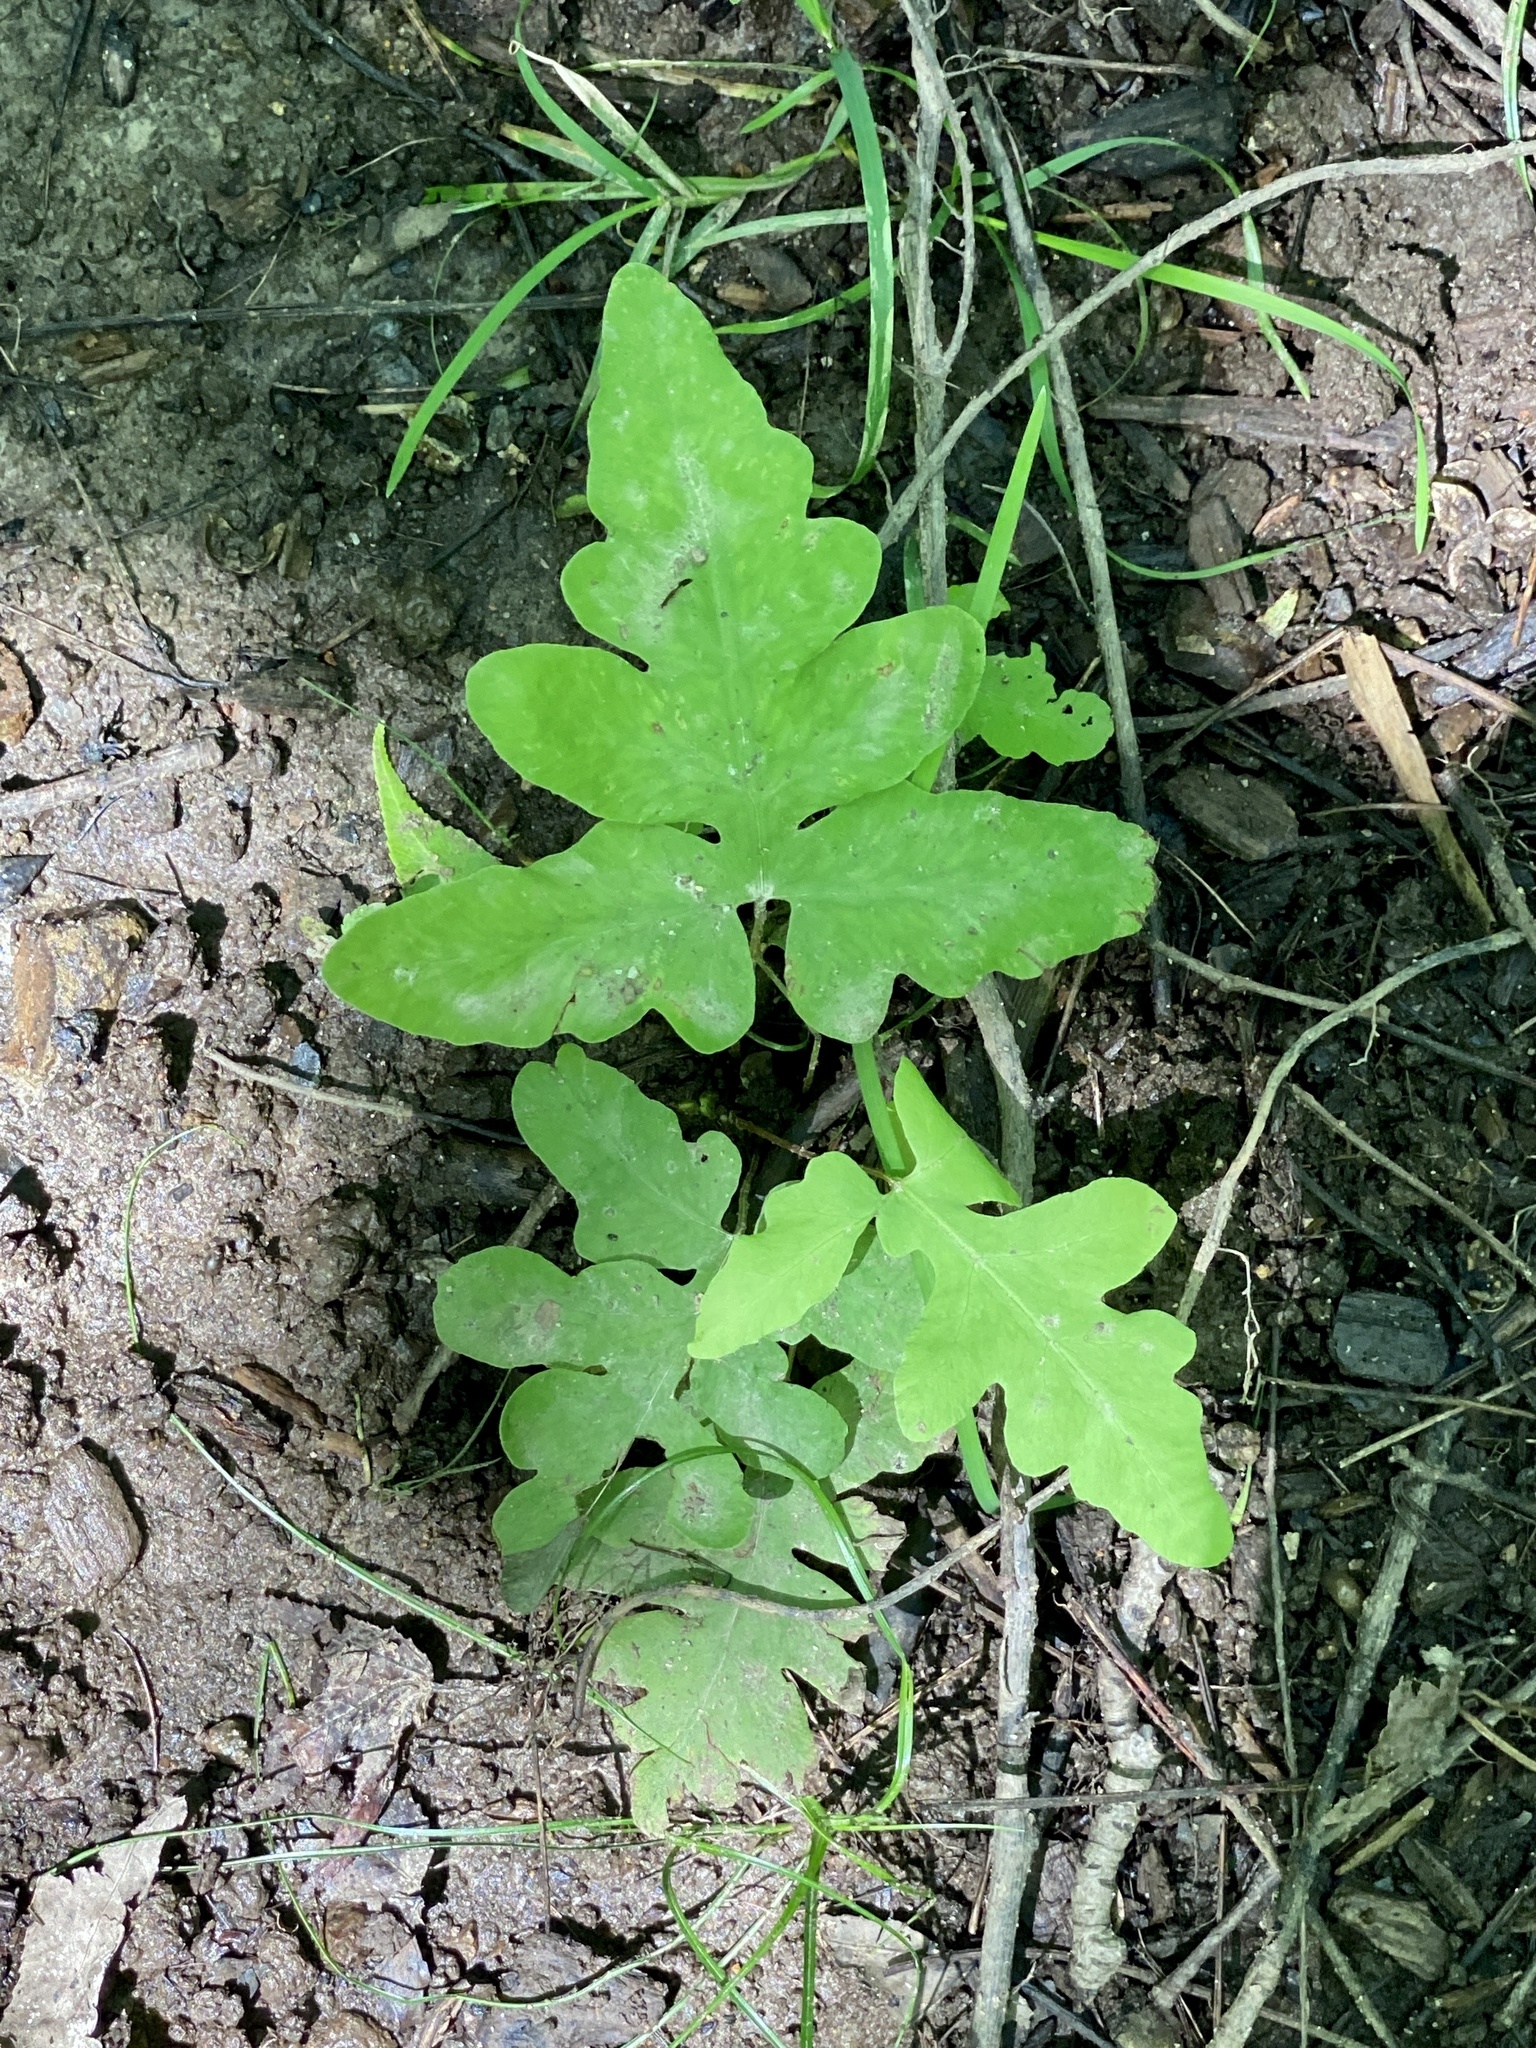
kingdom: Plantae
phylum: Tracheophyta
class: Polypodiopsida
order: Polypodiales
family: Onocleaceae
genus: Onoclea
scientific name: Onoclea sensibilis
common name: Sensitive fern
